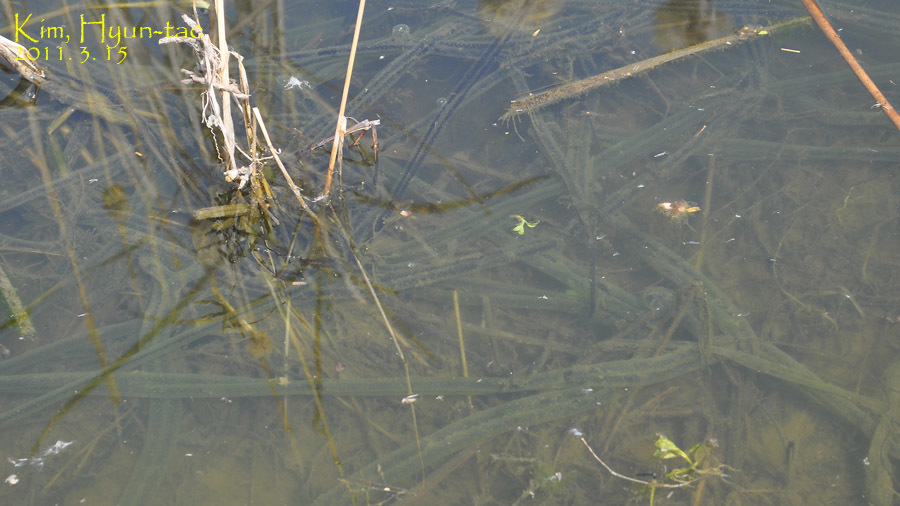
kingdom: Animalia
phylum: Chordata
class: Amphibia
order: Anura
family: Bufonidae
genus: Bufo
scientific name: Bufo gargarizans
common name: Asiatic toad
